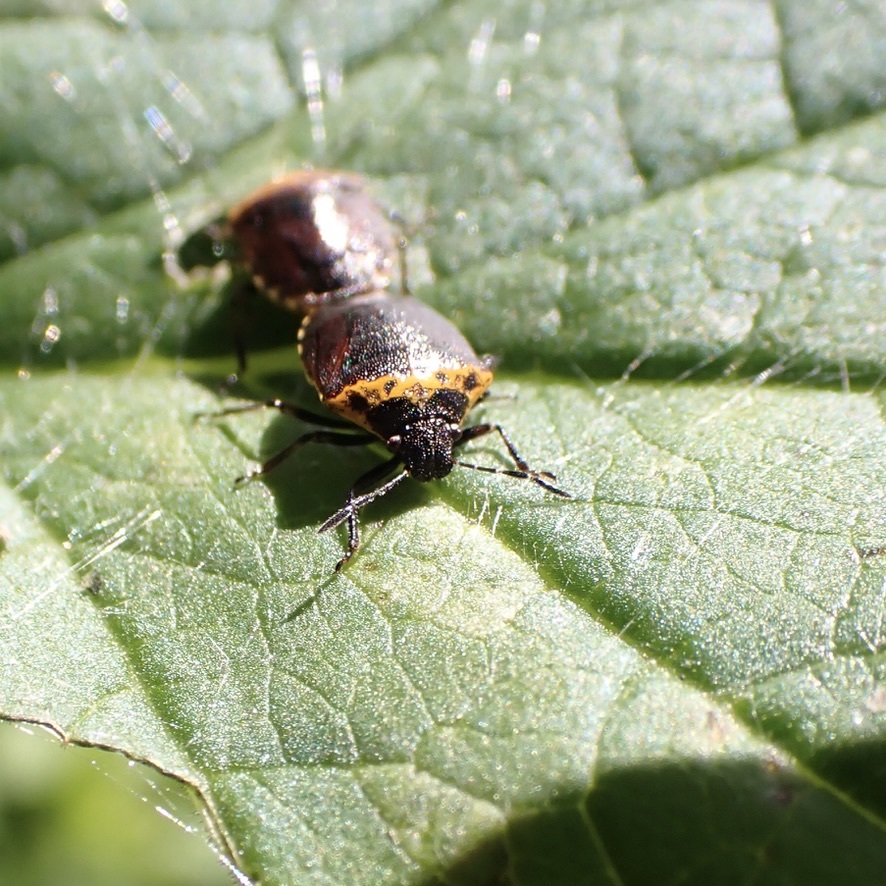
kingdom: Animalia
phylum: Arthropoda
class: Insecta
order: Hemiptera
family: Pentatomidae
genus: Cosmopepla
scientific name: Cosmopepla uhleri
